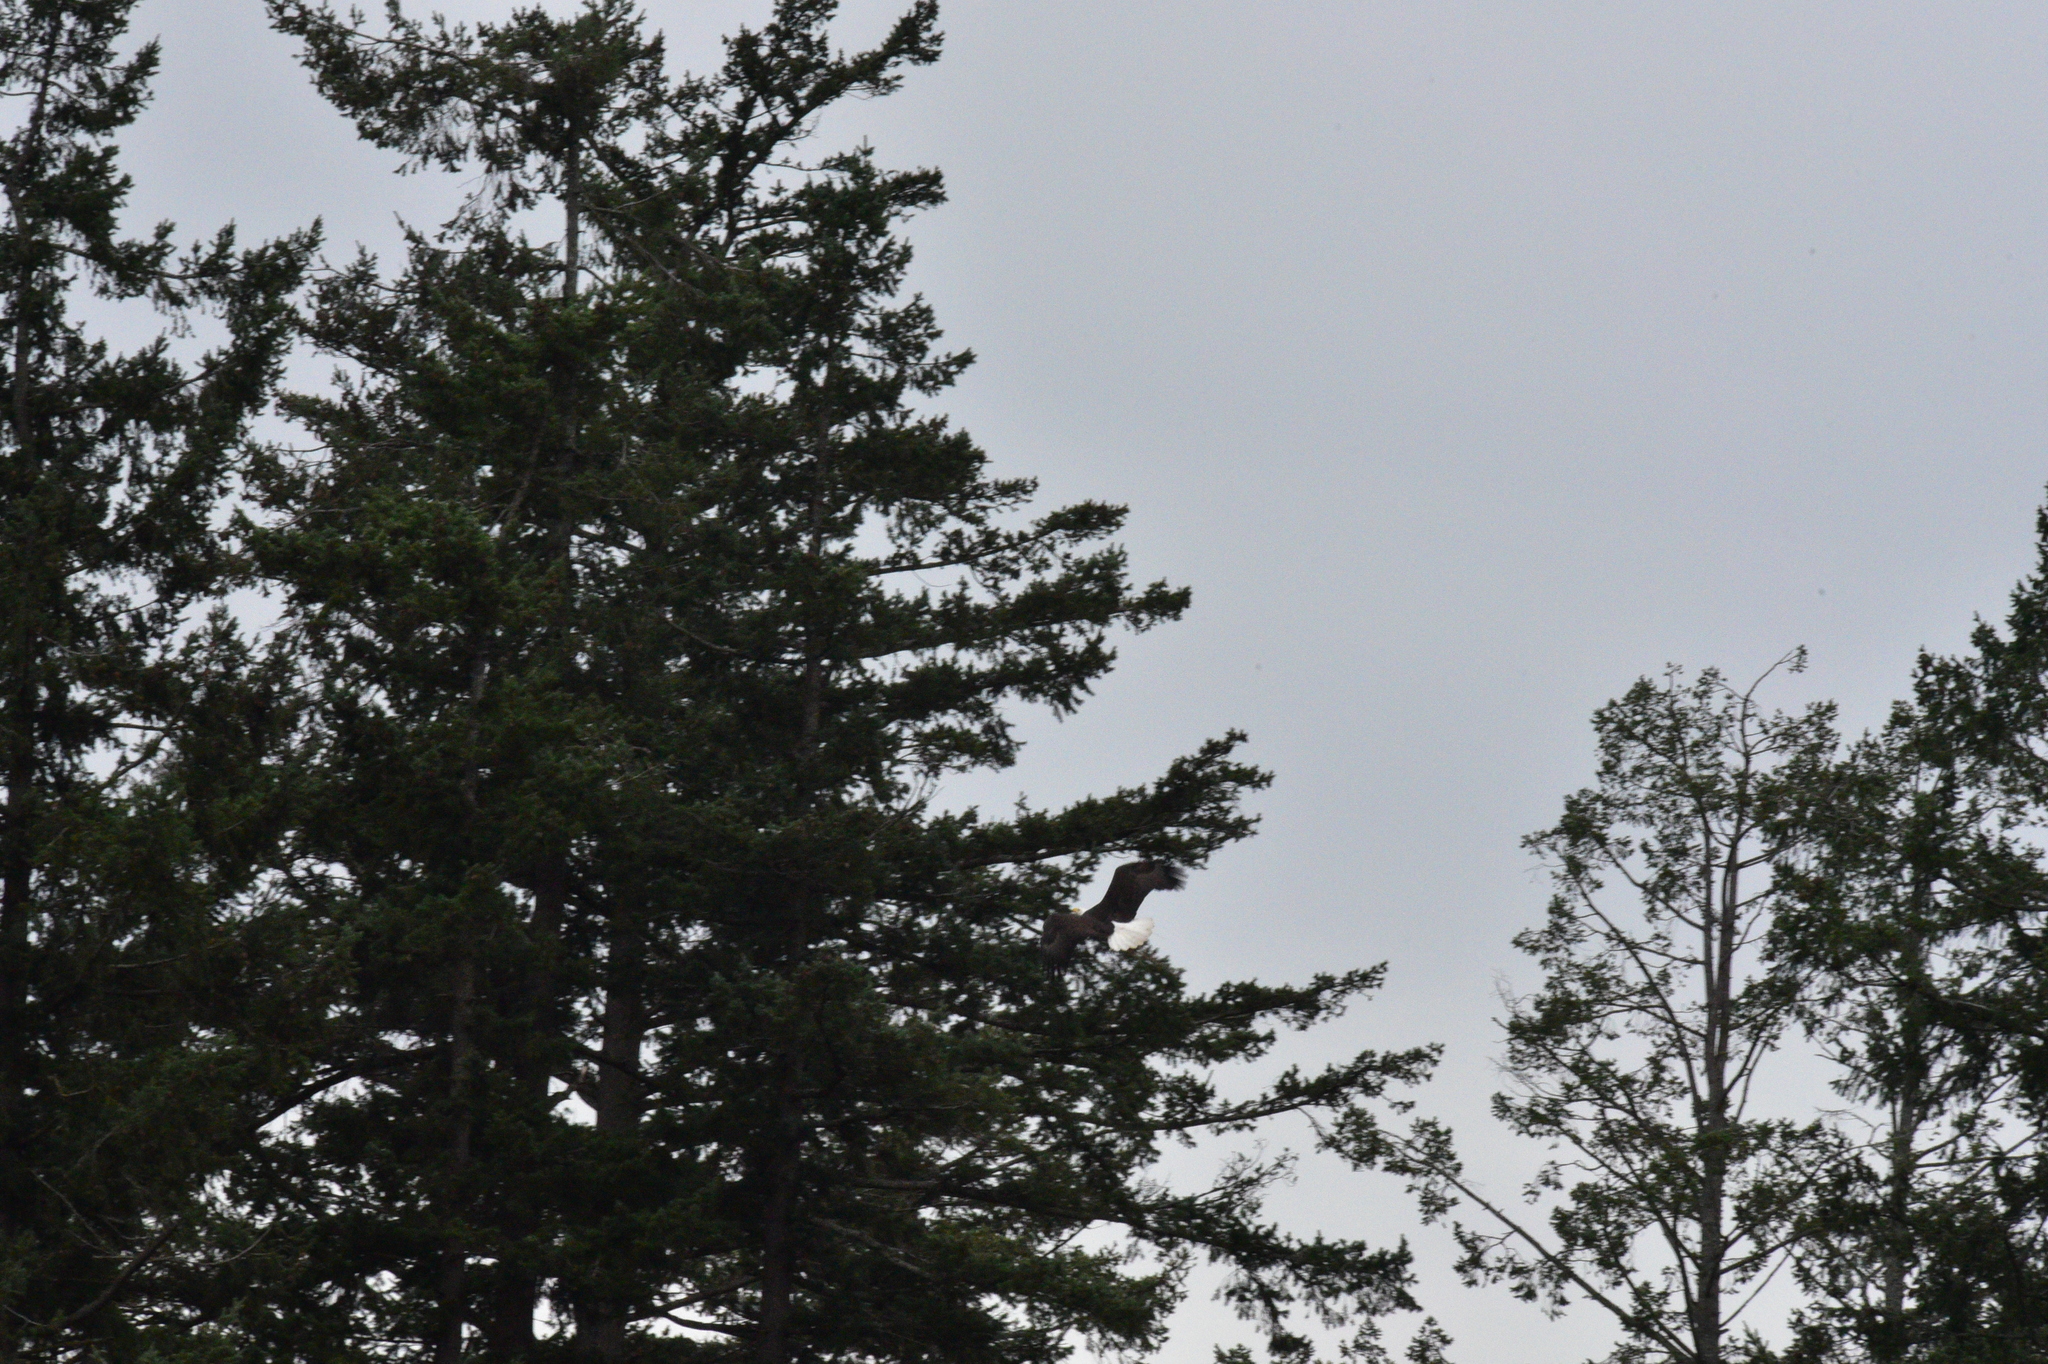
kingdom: Animalia
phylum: Chordata
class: Aves
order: Accipitriformes
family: Accipitridae
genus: Haliaeetus
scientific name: Haliaeetus leucocephalus
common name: Bald eagle
